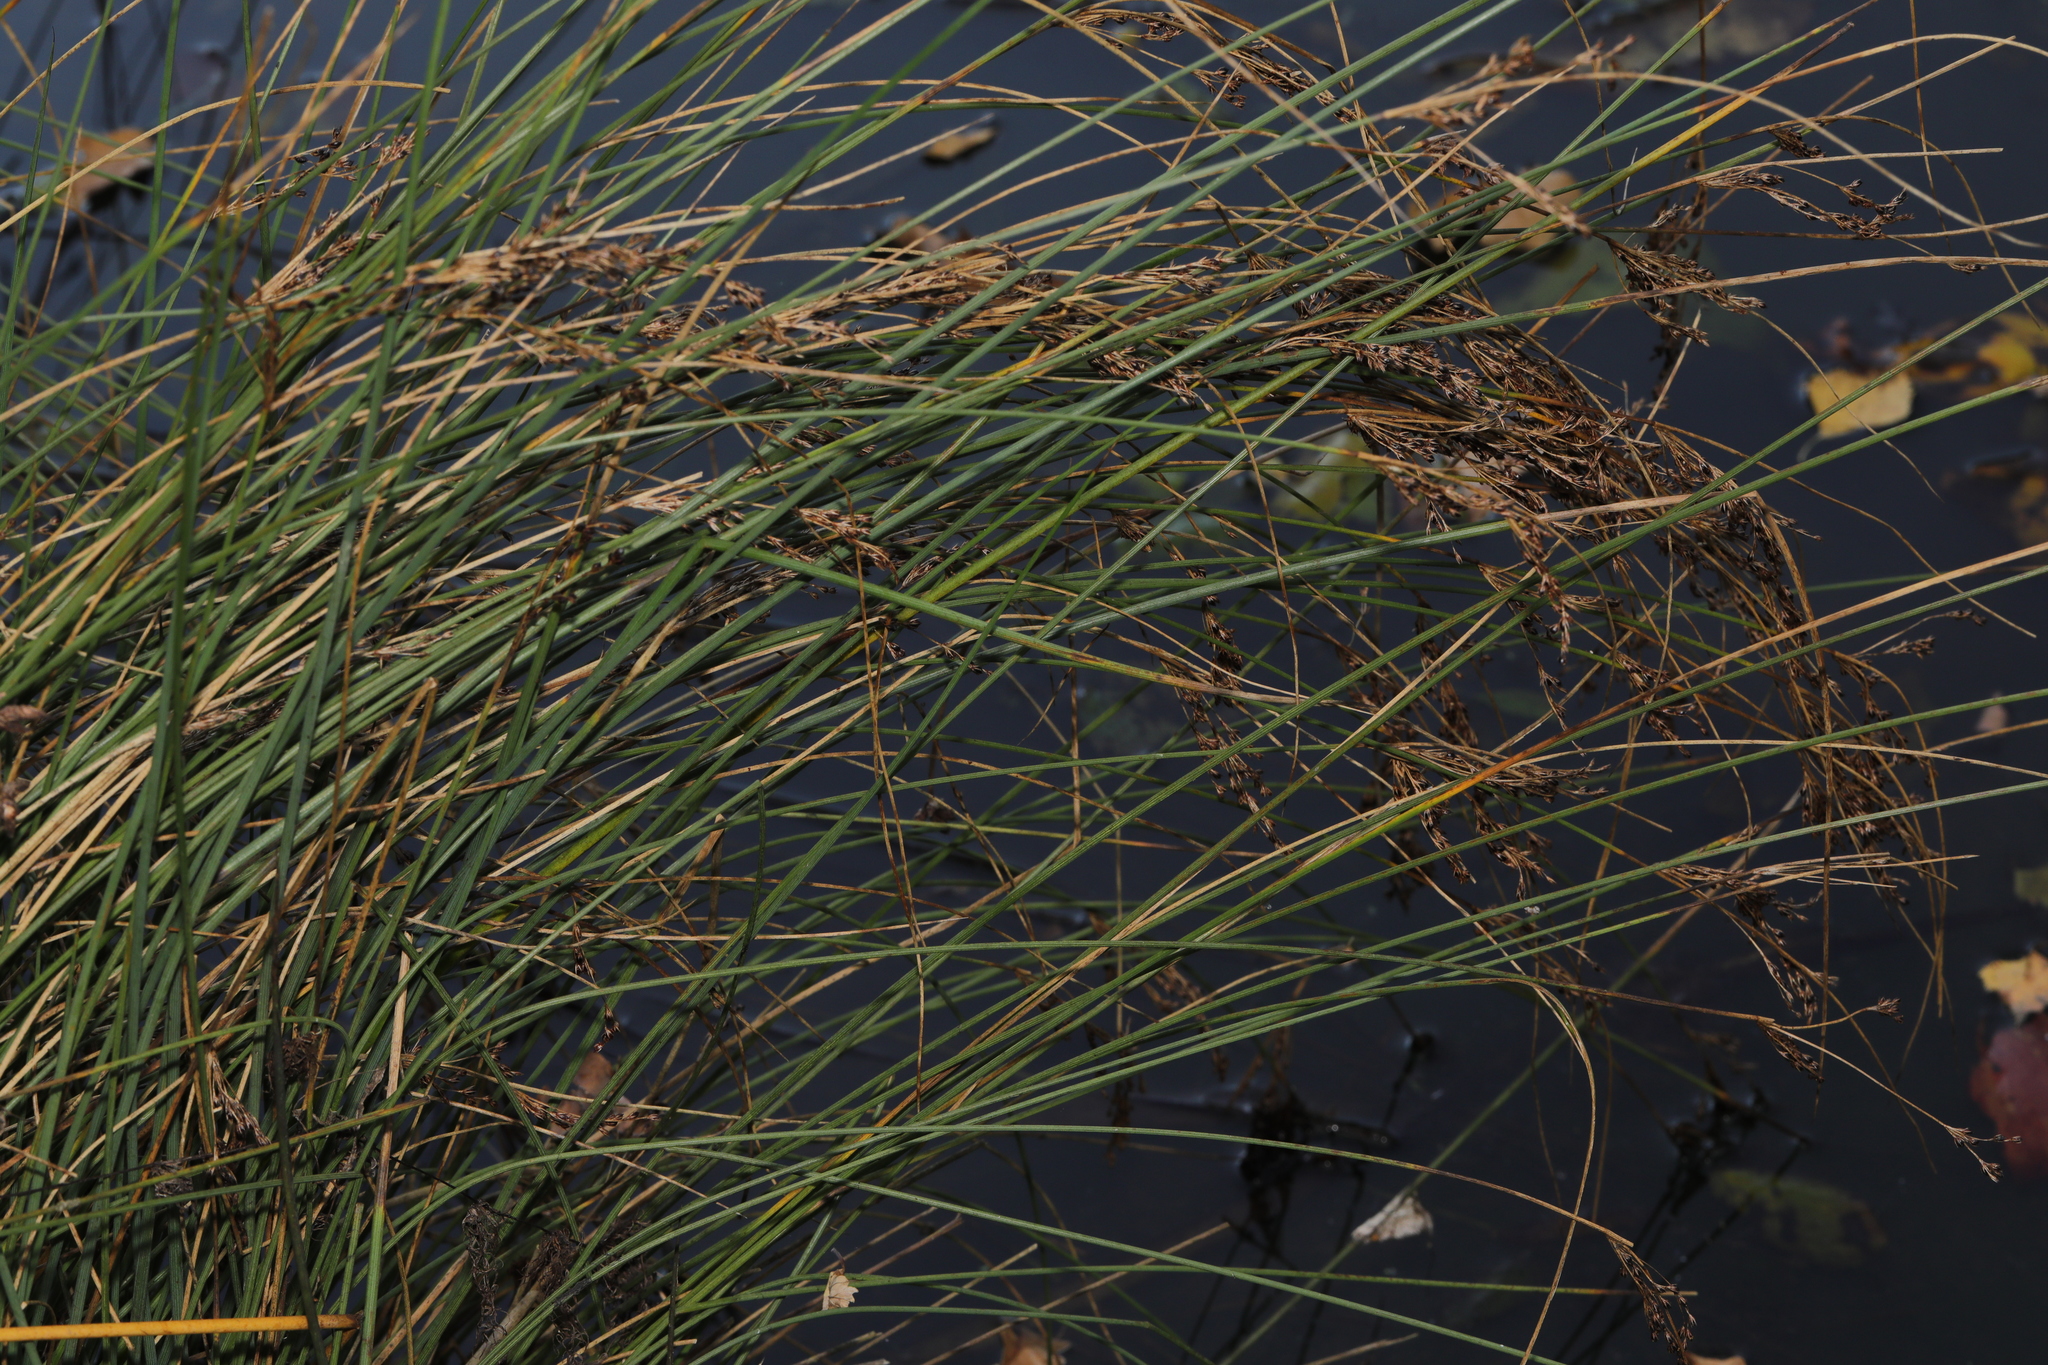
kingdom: Plantae
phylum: Tracheophyta
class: Liliopsida
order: Poales
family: Juncaceae
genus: Juncus
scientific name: Juncus inflexus
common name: Hard rush
